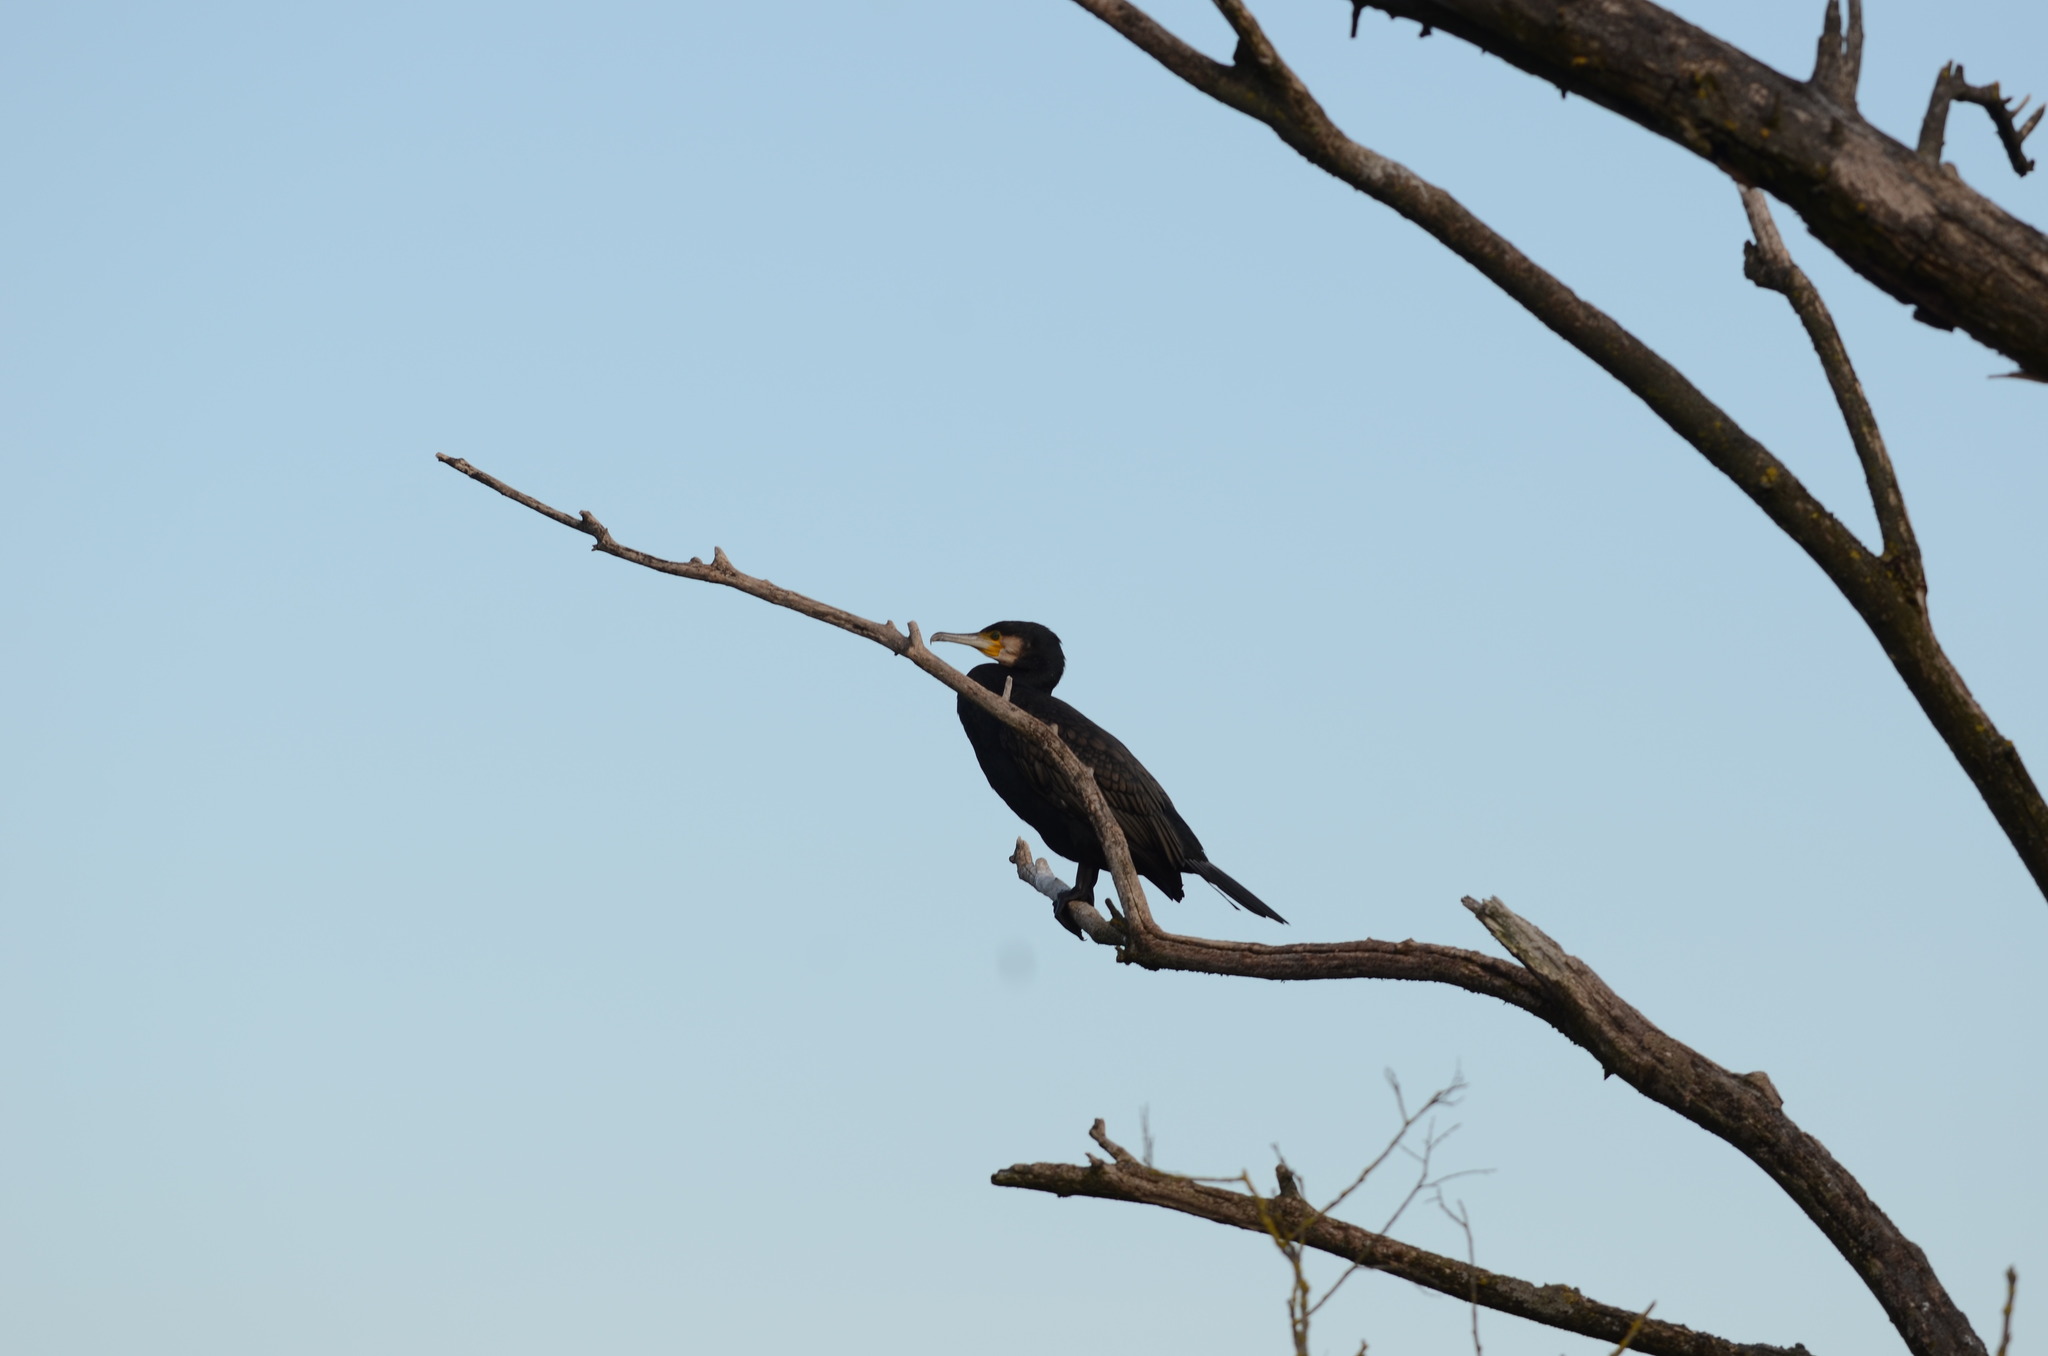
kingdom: Animalia
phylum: Chordata
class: Aves
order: Suliformes
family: Phalacrocoracidae
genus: Phalacrocorax
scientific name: Phalacrocorax carbo
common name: Great cormorant
